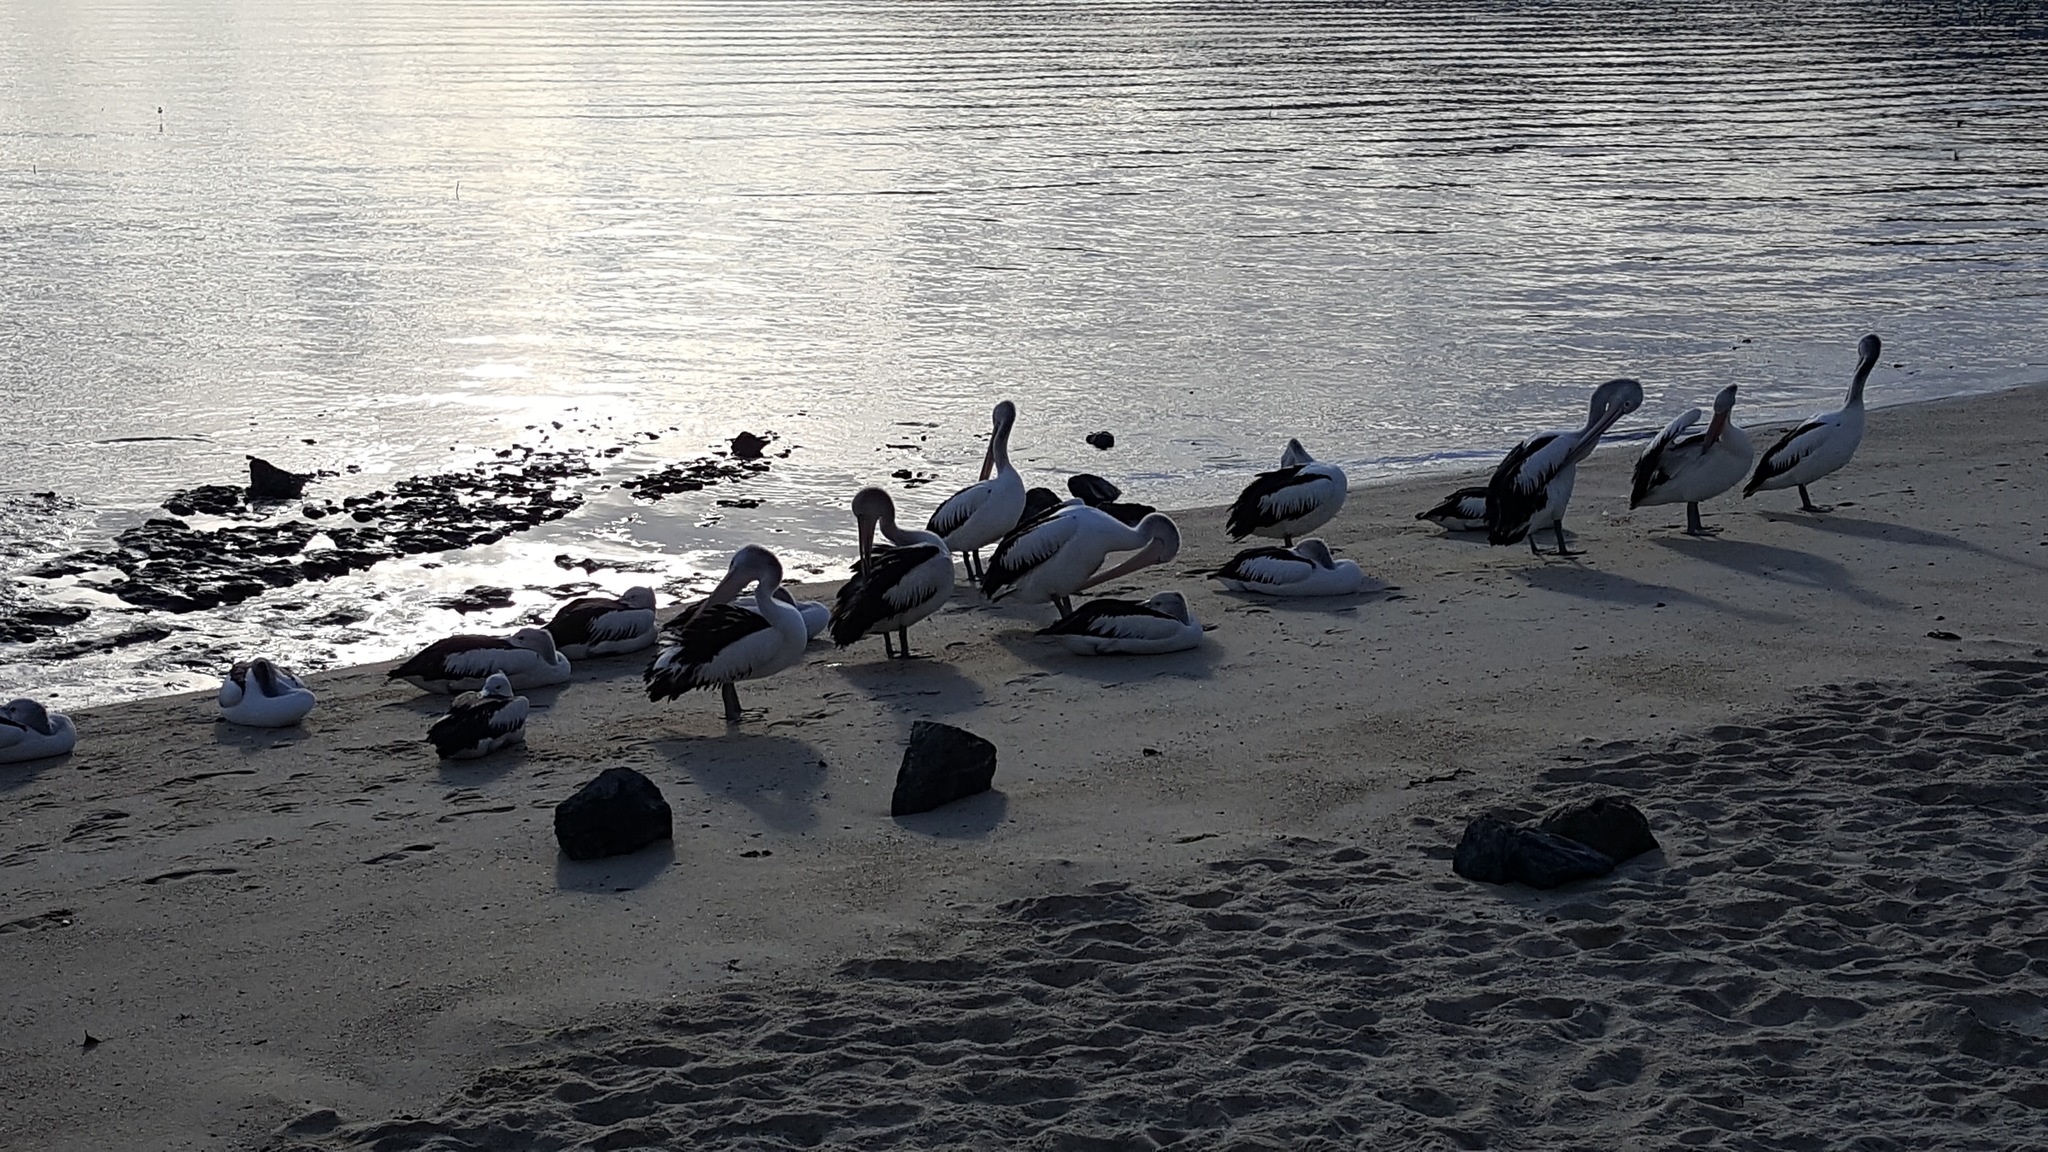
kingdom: Animalia
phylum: Chordata
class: Aves
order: Pelecaniformes
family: Pelecanidae
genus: Pelecanus
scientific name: Pelecanus conspicillatus
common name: Australian pelican
